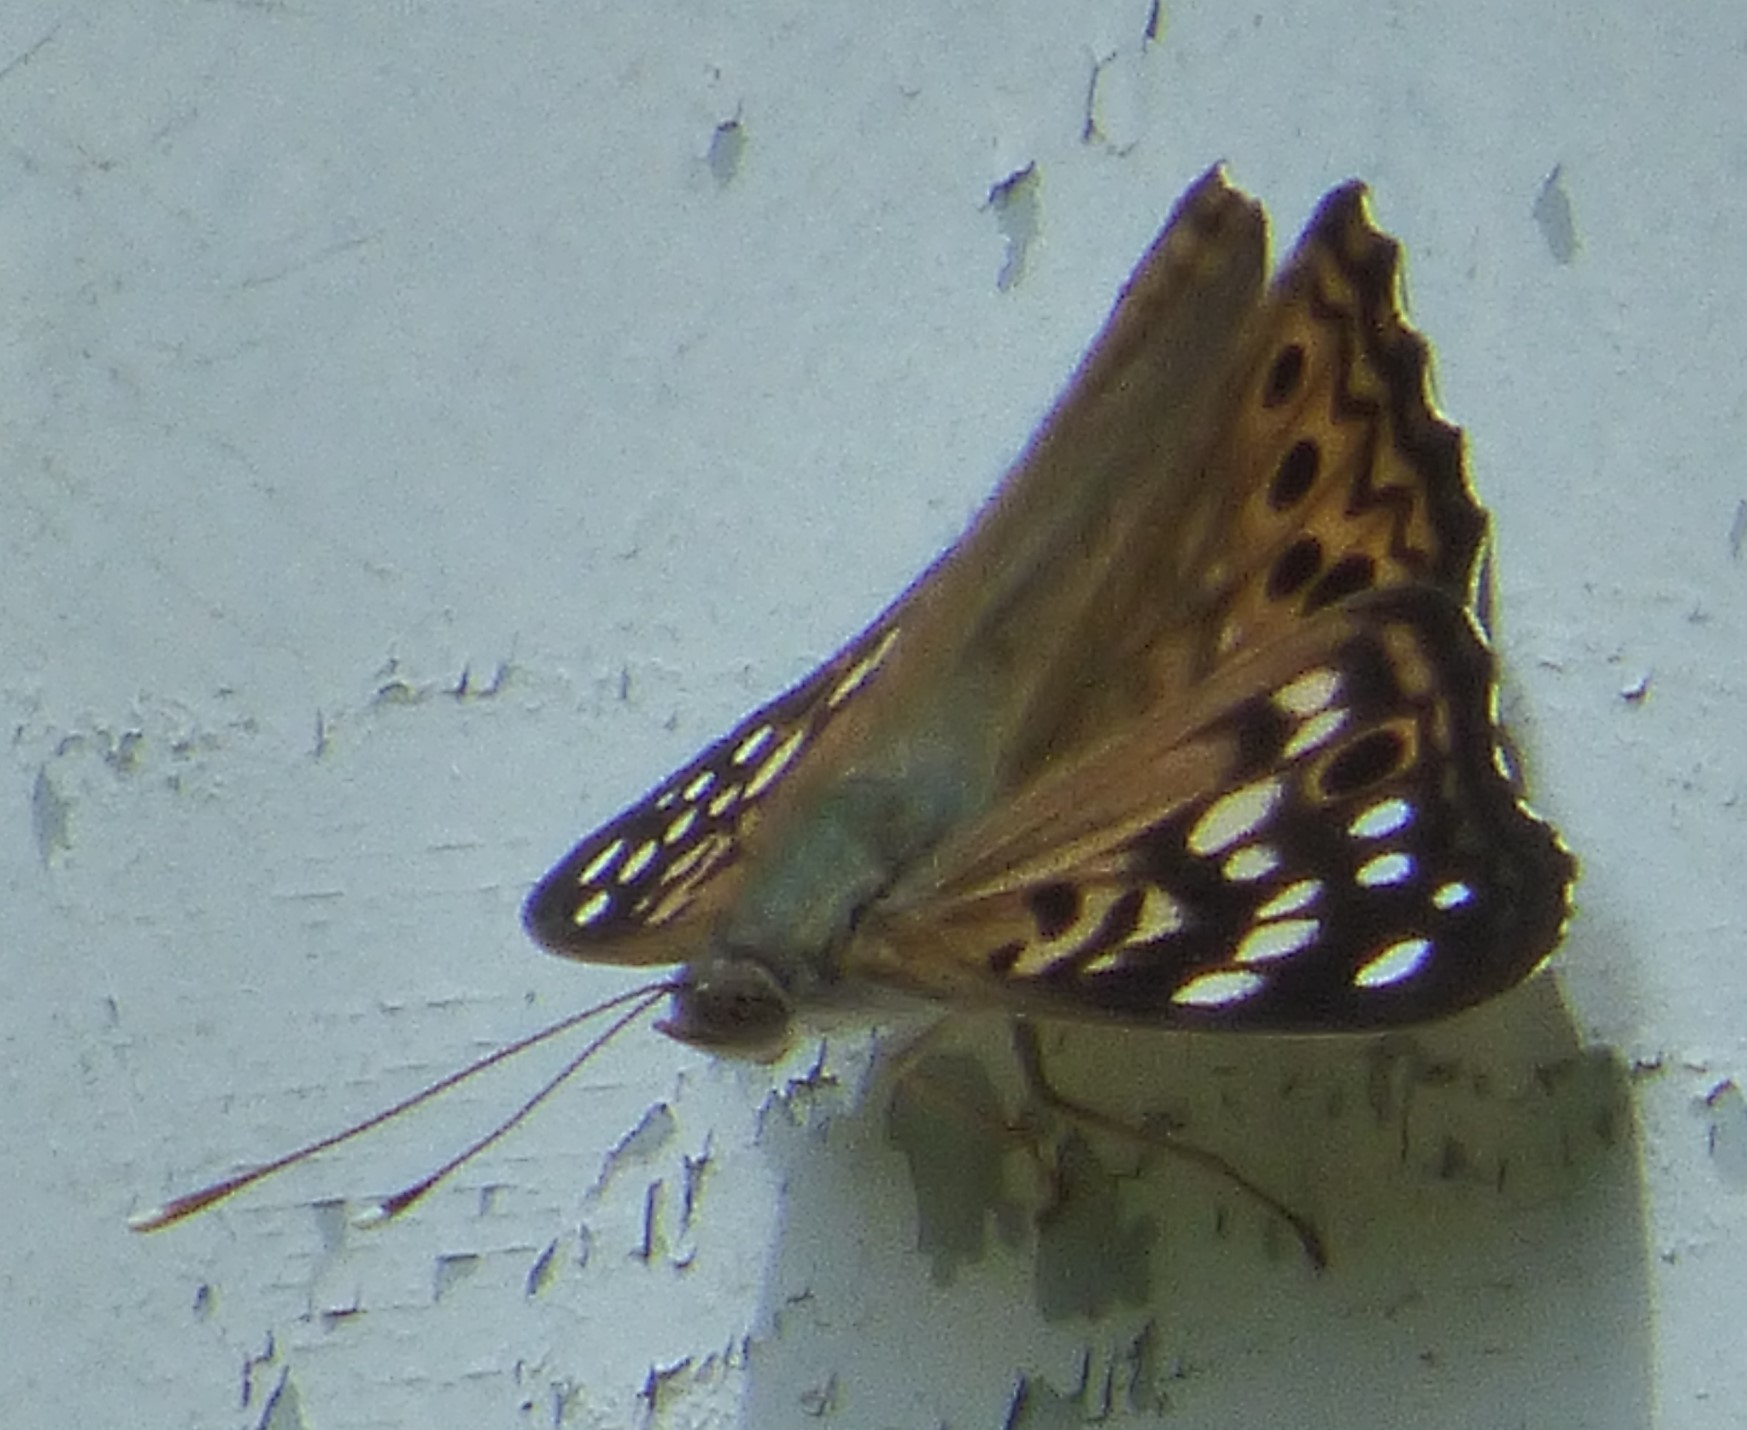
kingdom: Animalia
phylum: Arthropoda
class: Insecta
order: Lepidoptera
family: Nymphalidae
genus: Asterocampa
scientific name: Asterocampa celtis
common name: Hackberry emperor
